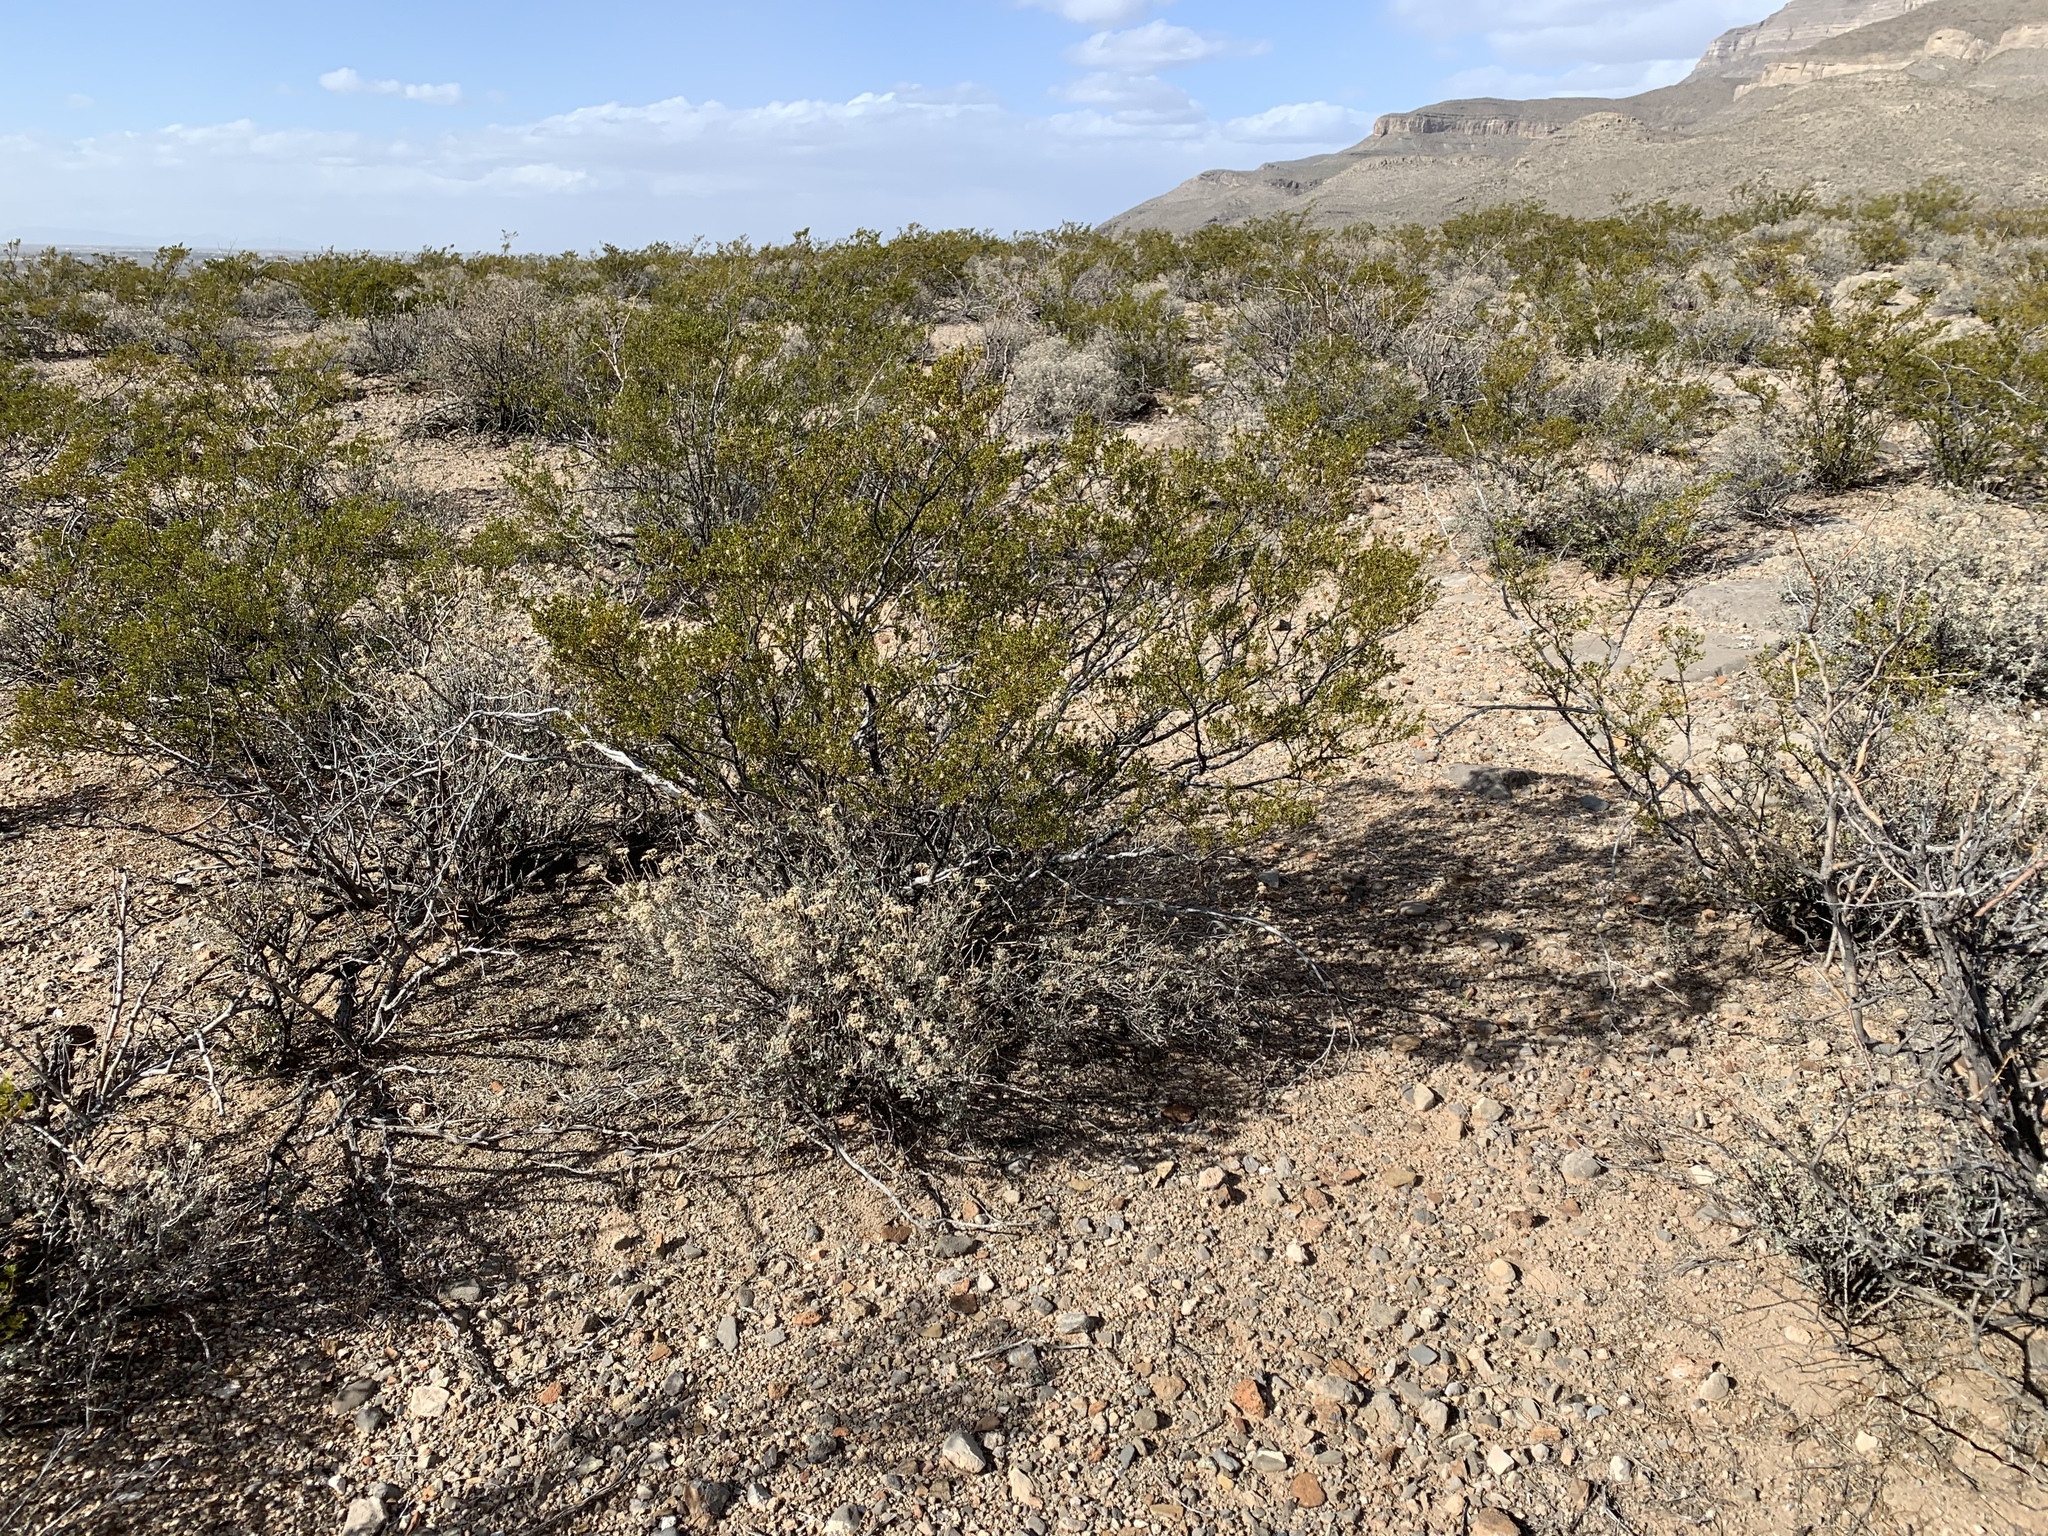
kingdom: Plantae
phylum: Tracheophyta
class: Magnoliopsida
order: Zygophyllales
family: Zygophyllaceae
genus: Larrea
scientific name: Larrea tridentata
